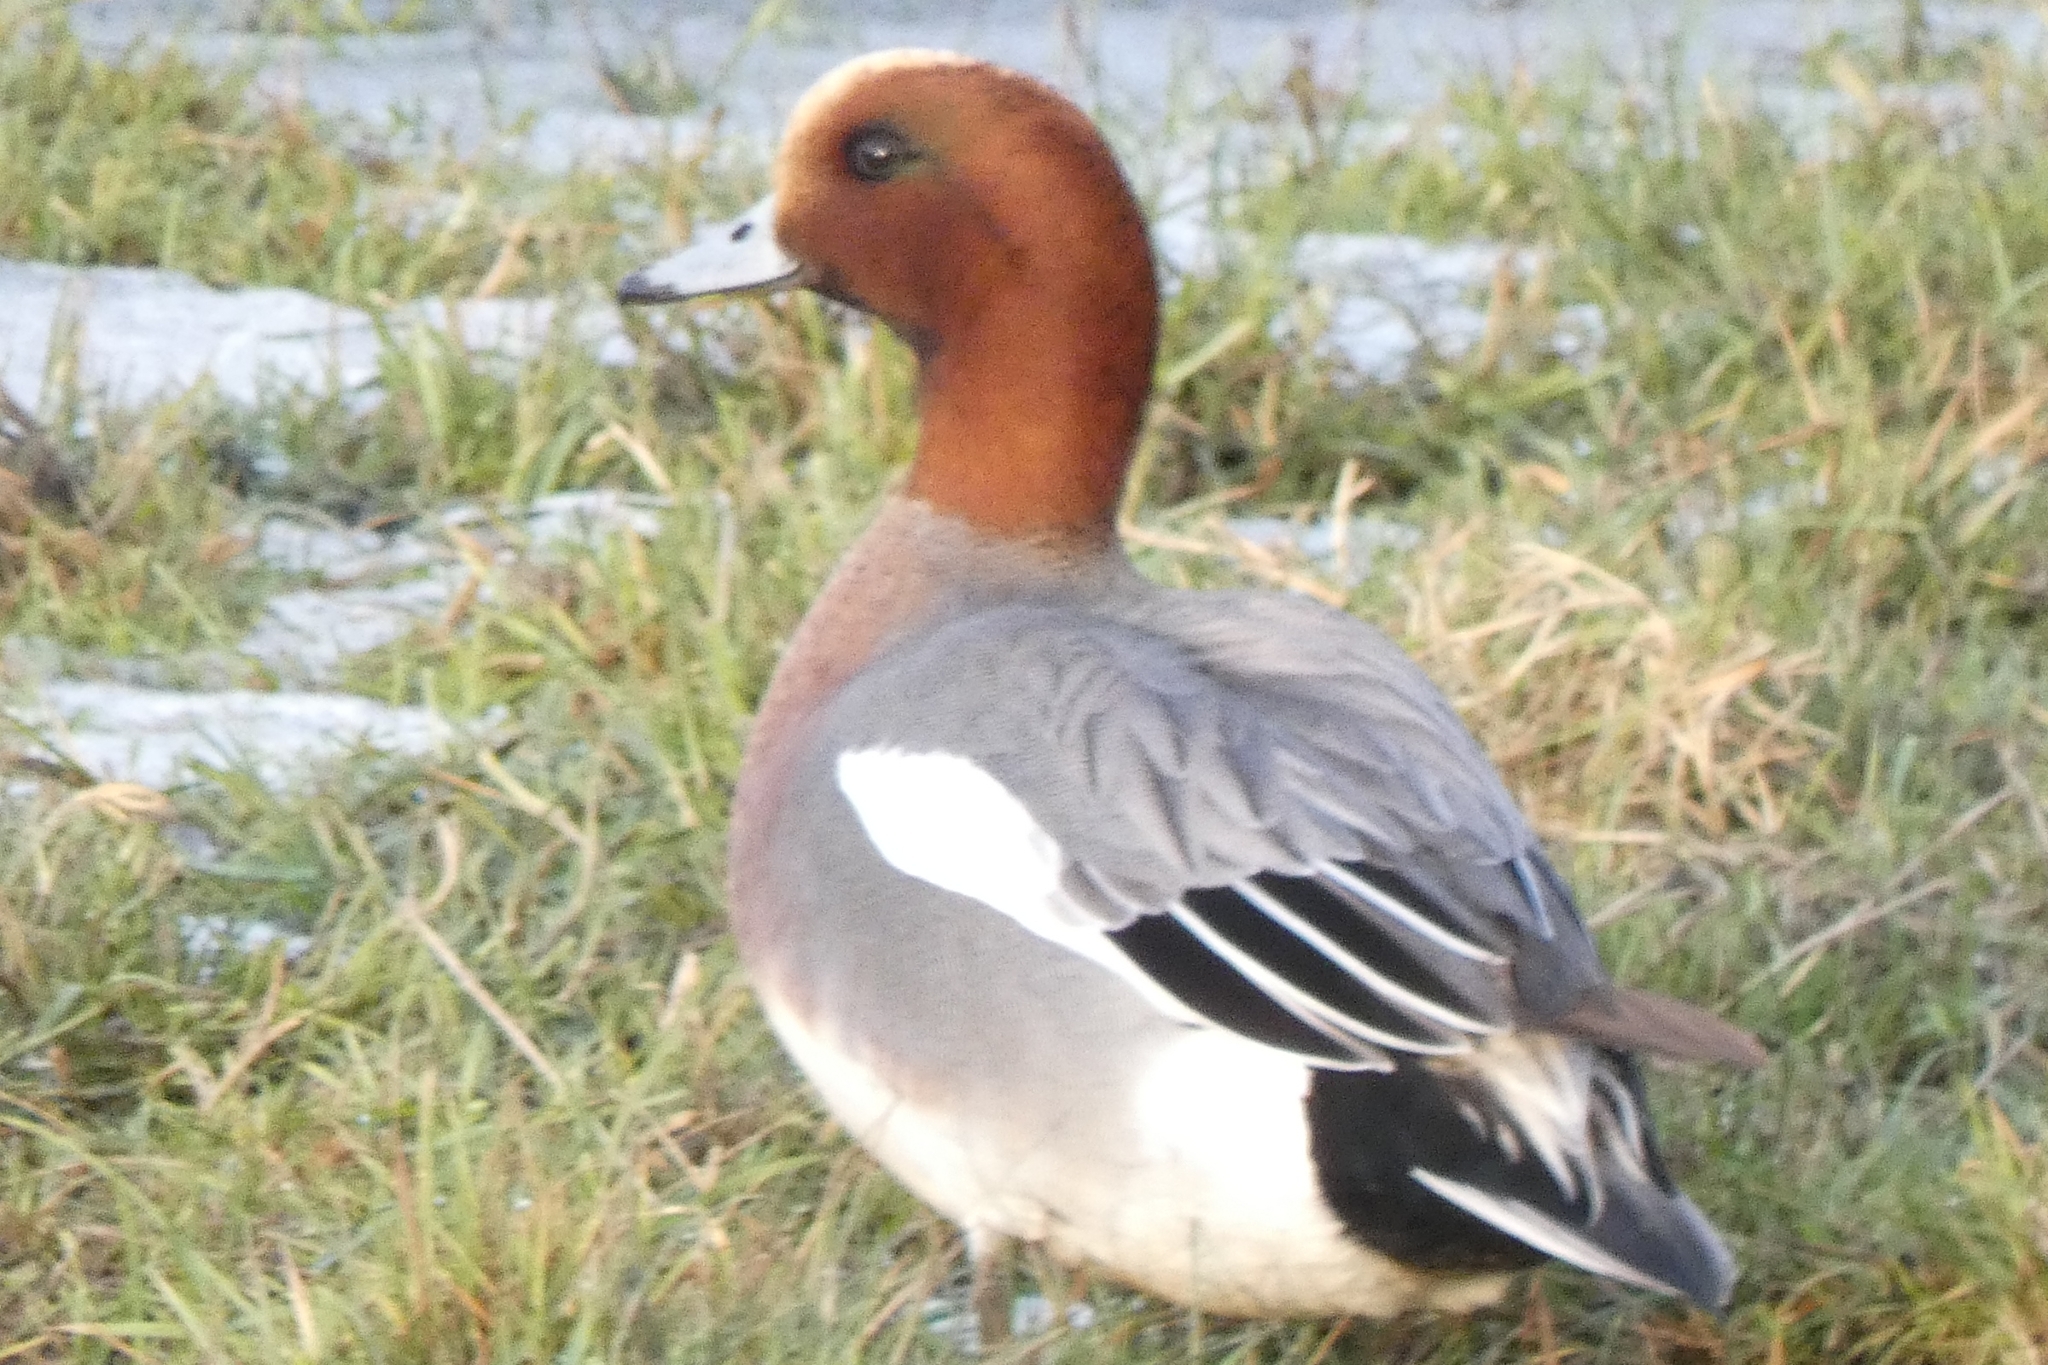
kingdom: Animalia
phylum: Chordata
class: Aves
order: Anseriformes
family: Anatidae
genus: Mareca
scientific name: Mareca penelope
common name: Eurasian wigeon
